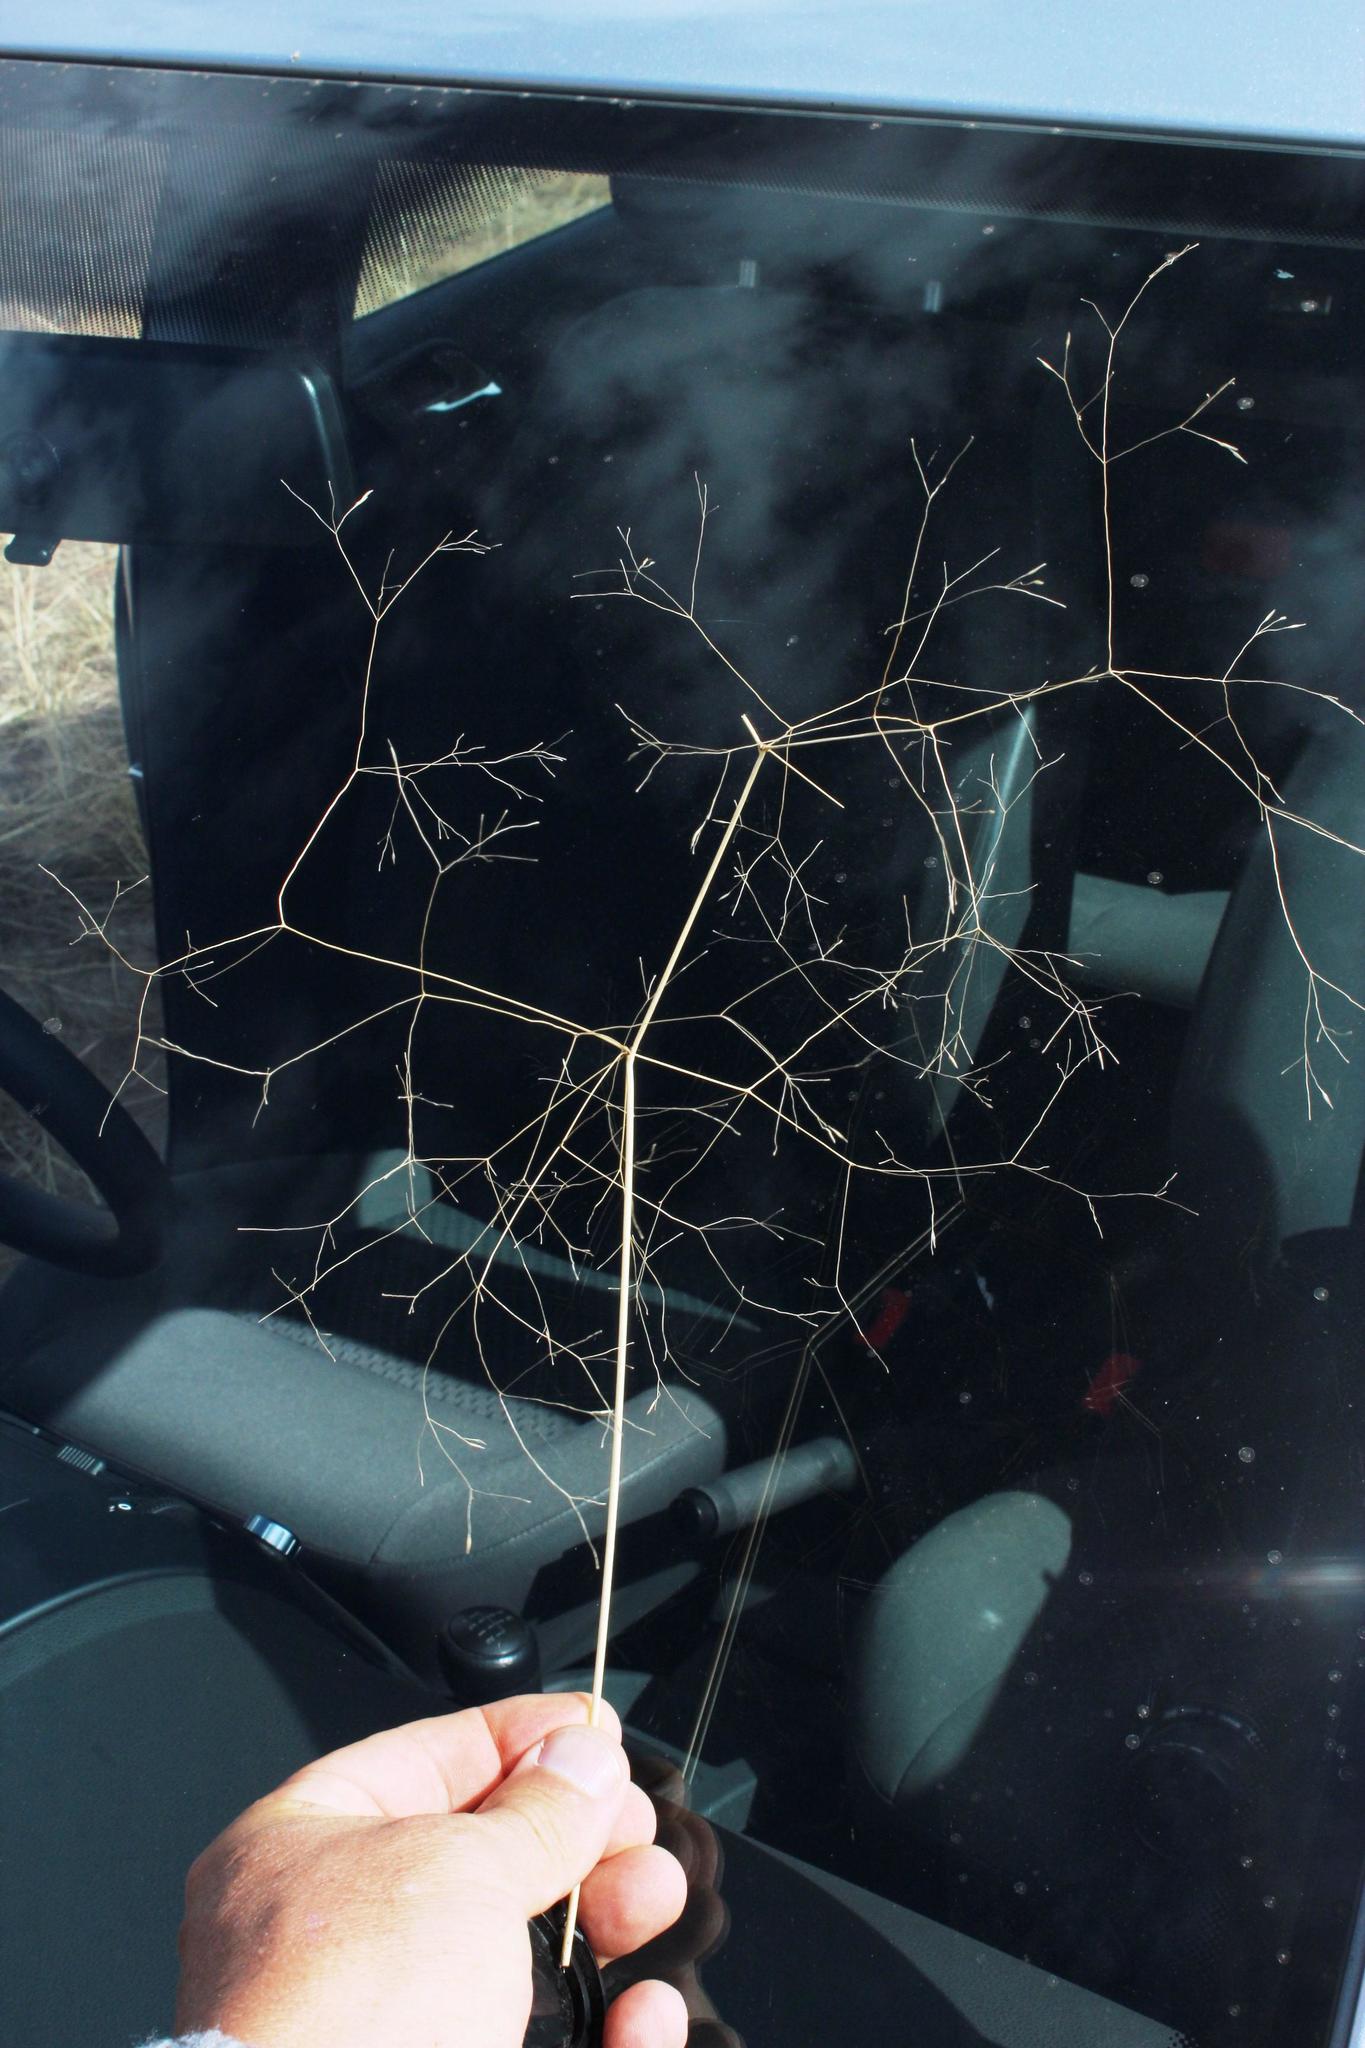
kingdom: Plantae
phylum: Tracheophyta
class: Liliopsida
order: Poales
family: Poaceae
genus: Lachnagrostis
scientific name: Lachnagrostis eriantha
